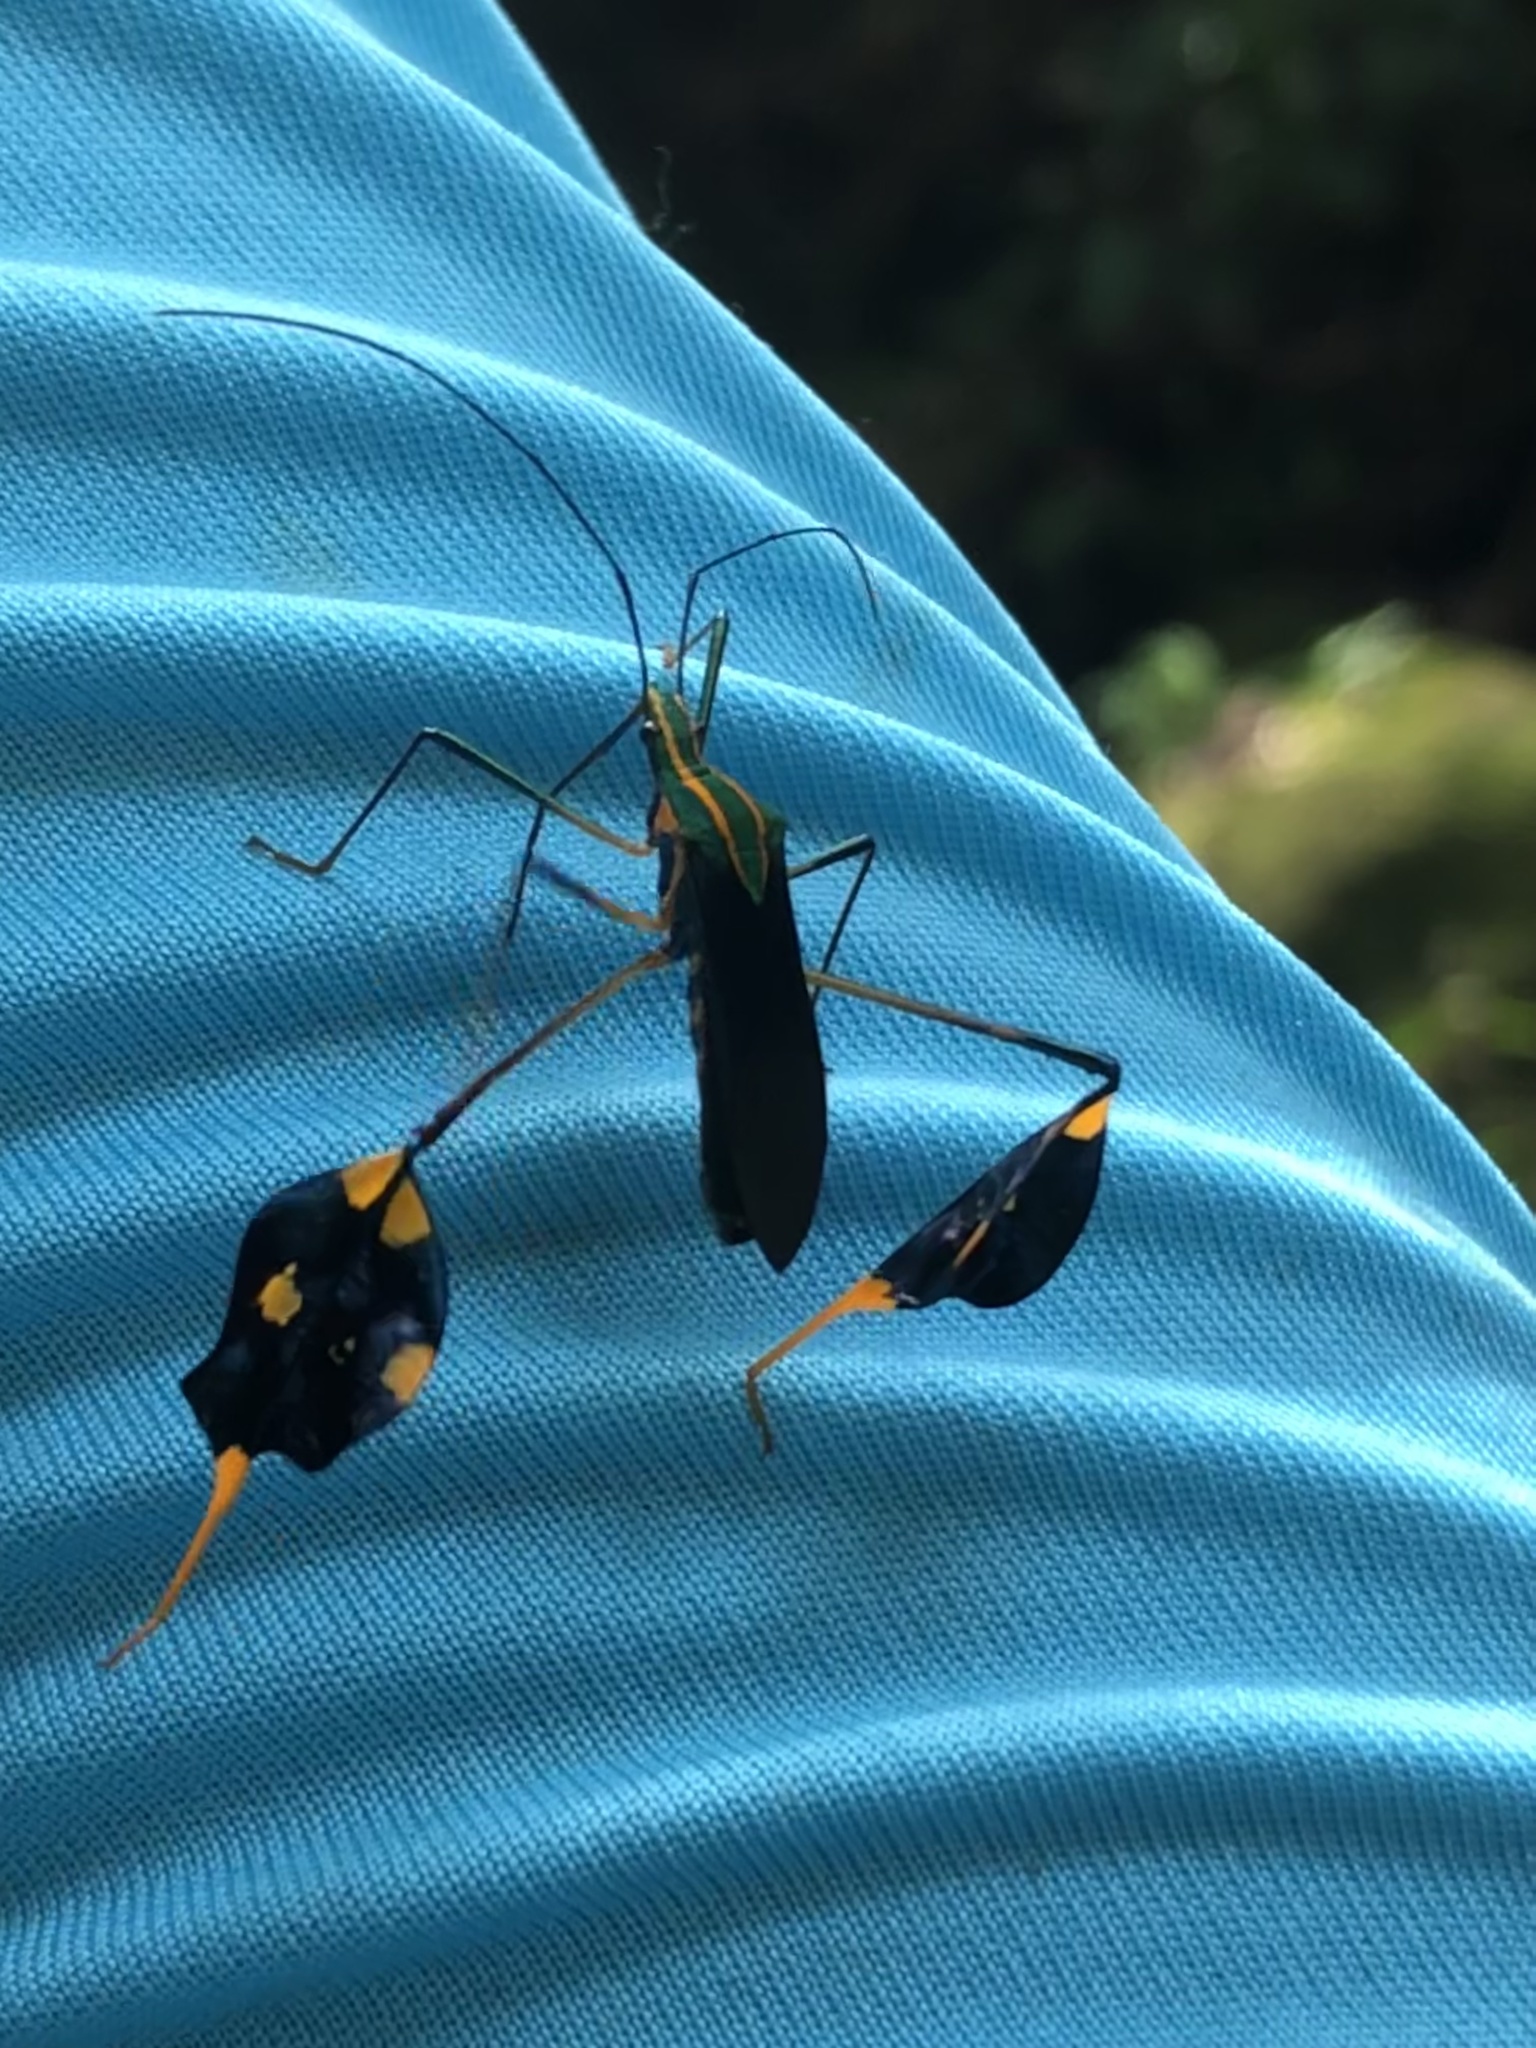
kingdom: Animalia
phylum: Arthropoda
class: Insecta
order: Hemiptera
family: Coreidae
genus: Diactor
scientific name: Diactor bilineatus
